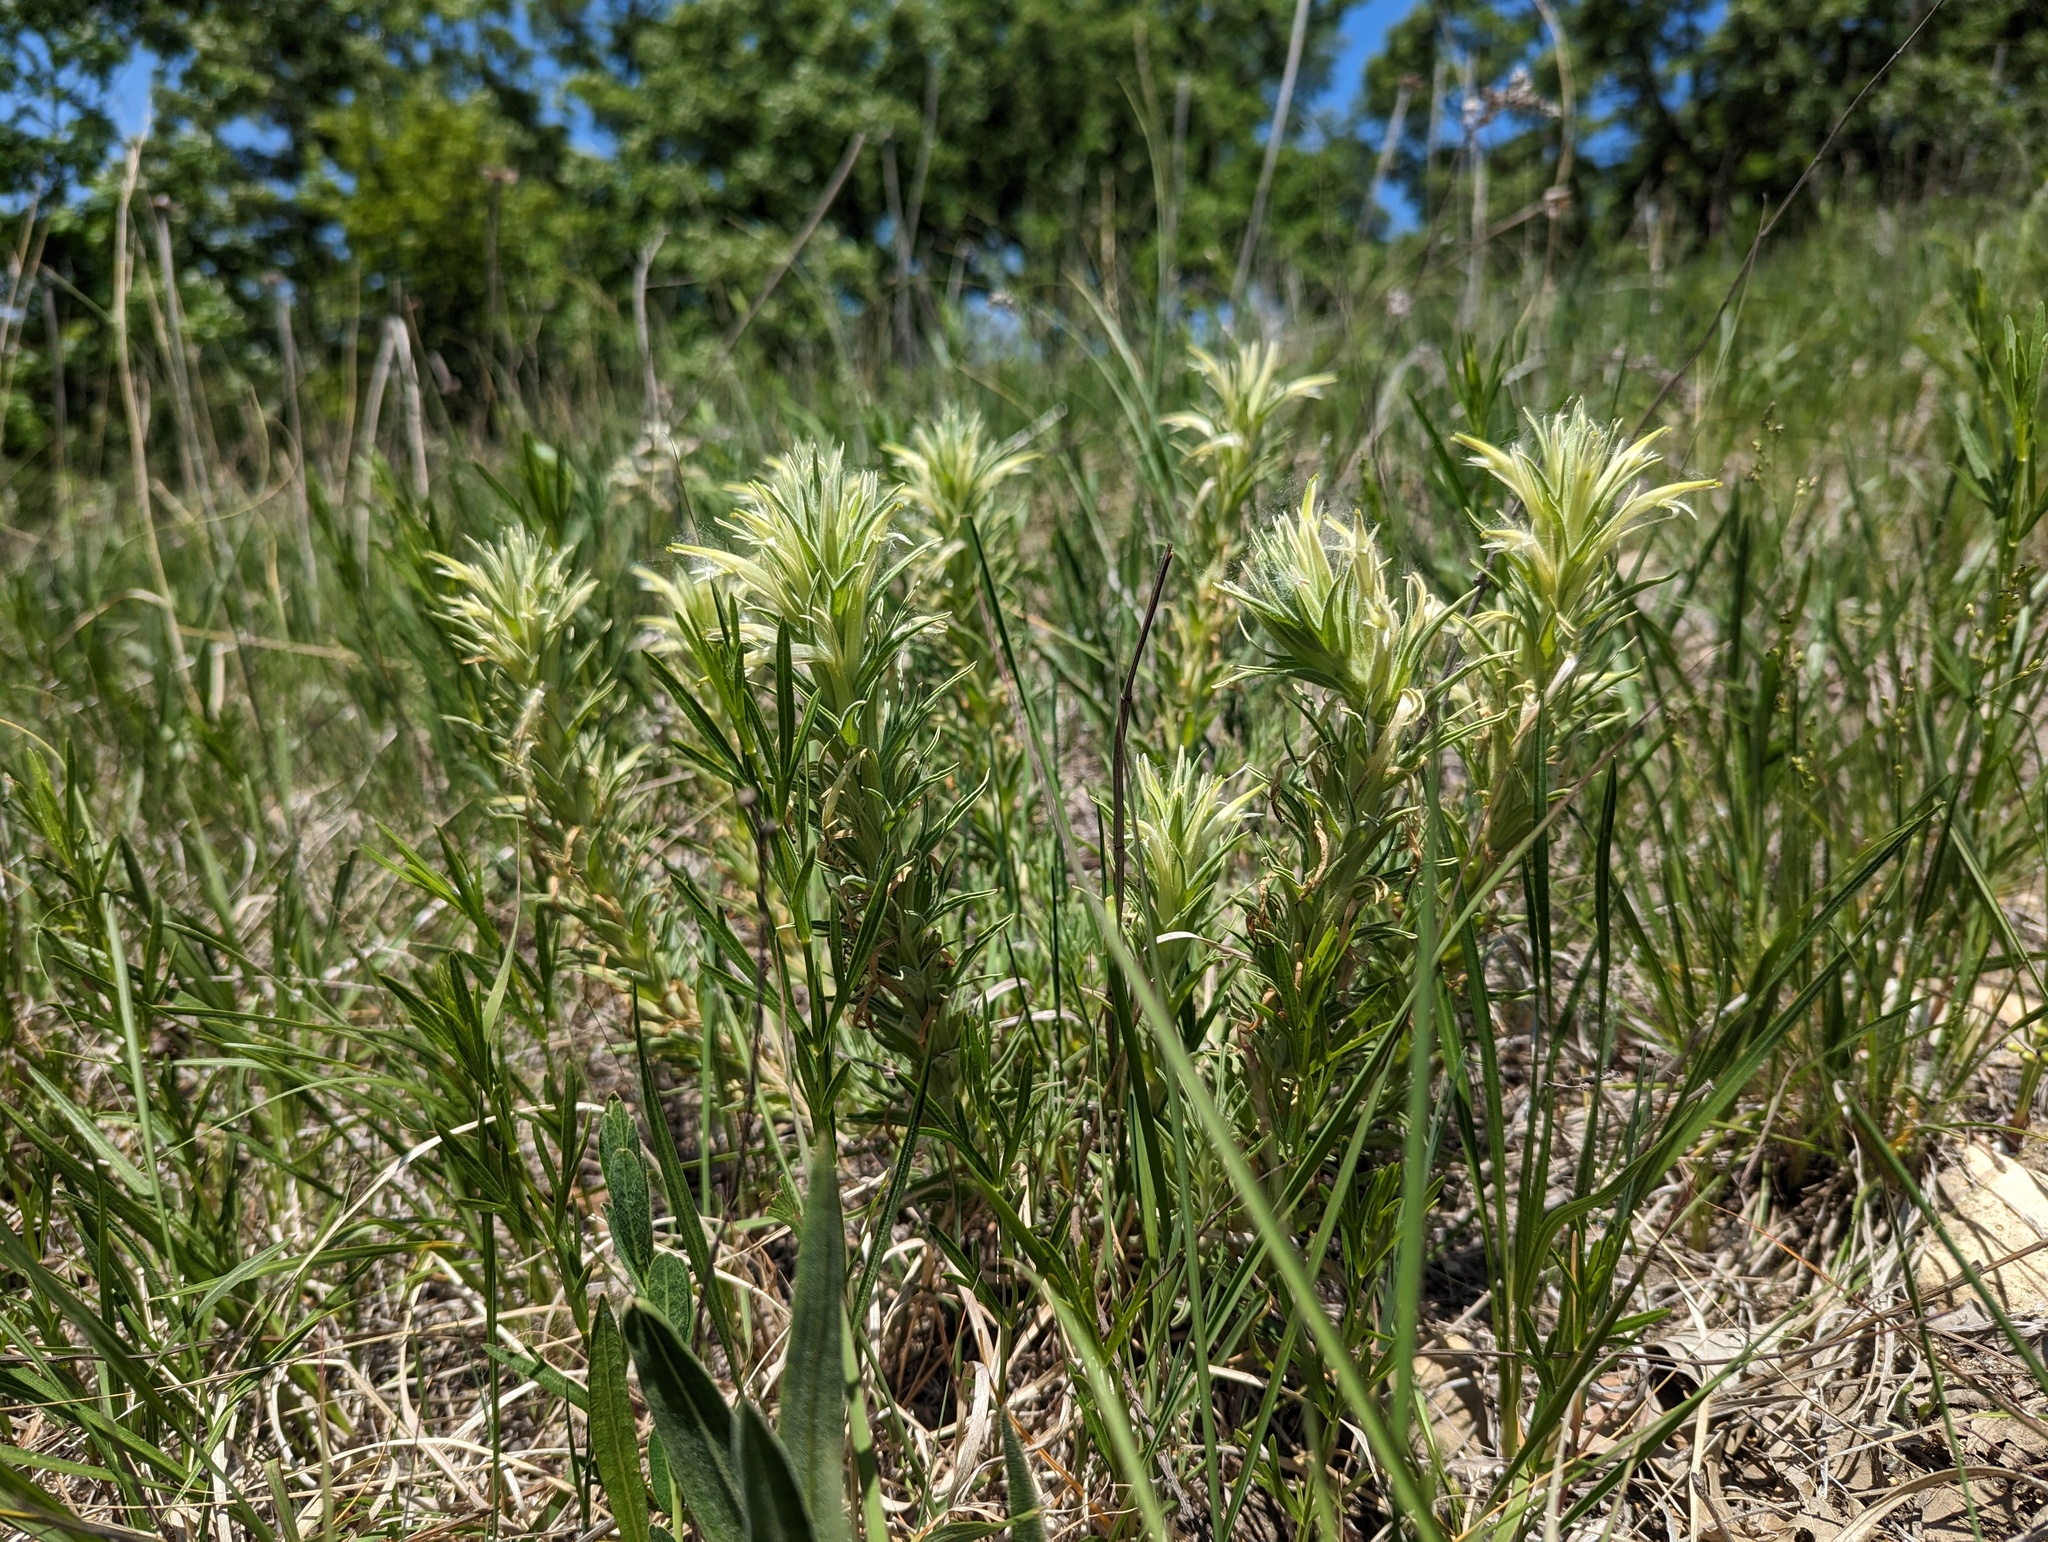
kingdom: Plantae
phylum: Tracheophyta
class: Magnoliopsida
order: Lamiales
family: Orobanchaceae
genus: Castilleja
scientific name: Castilleja sessiliflora
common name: Downy paintbrush
